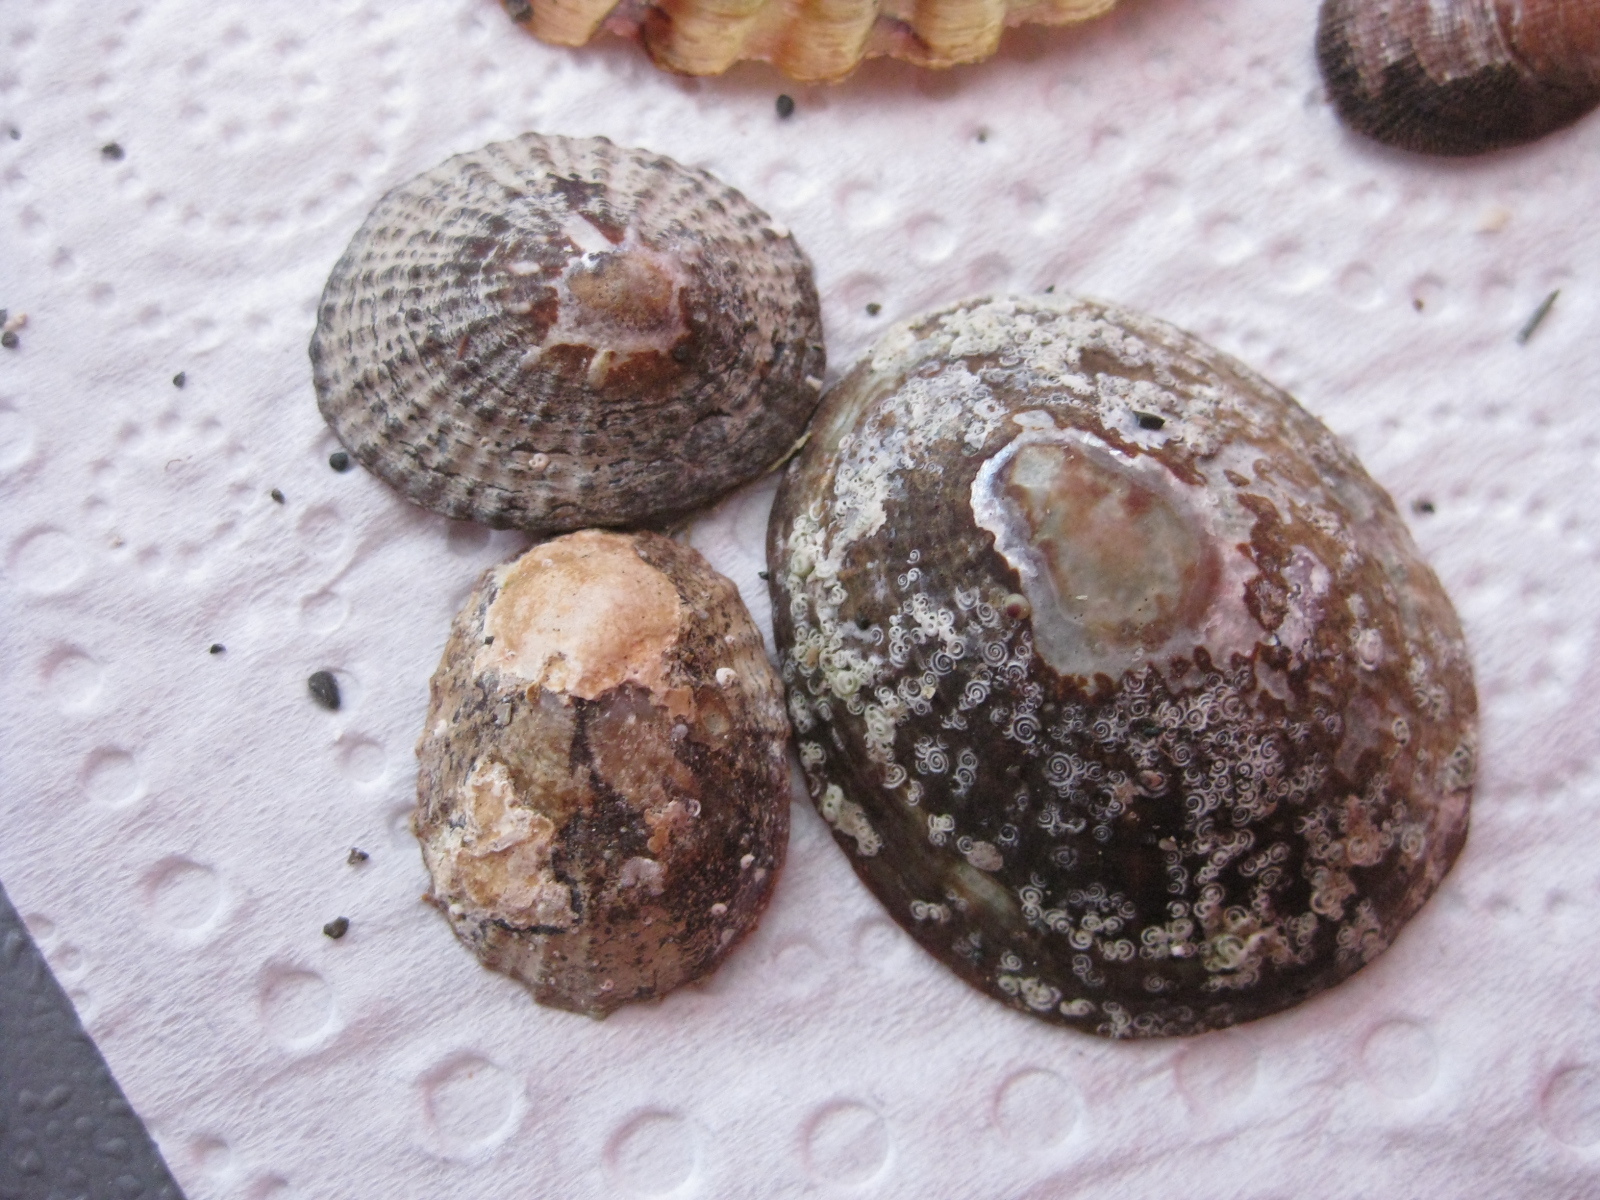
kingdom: Animalia
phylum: Mollusca
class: Gastropoda
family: Nacellidae
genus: Cellana
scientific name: Cellana stellifera
